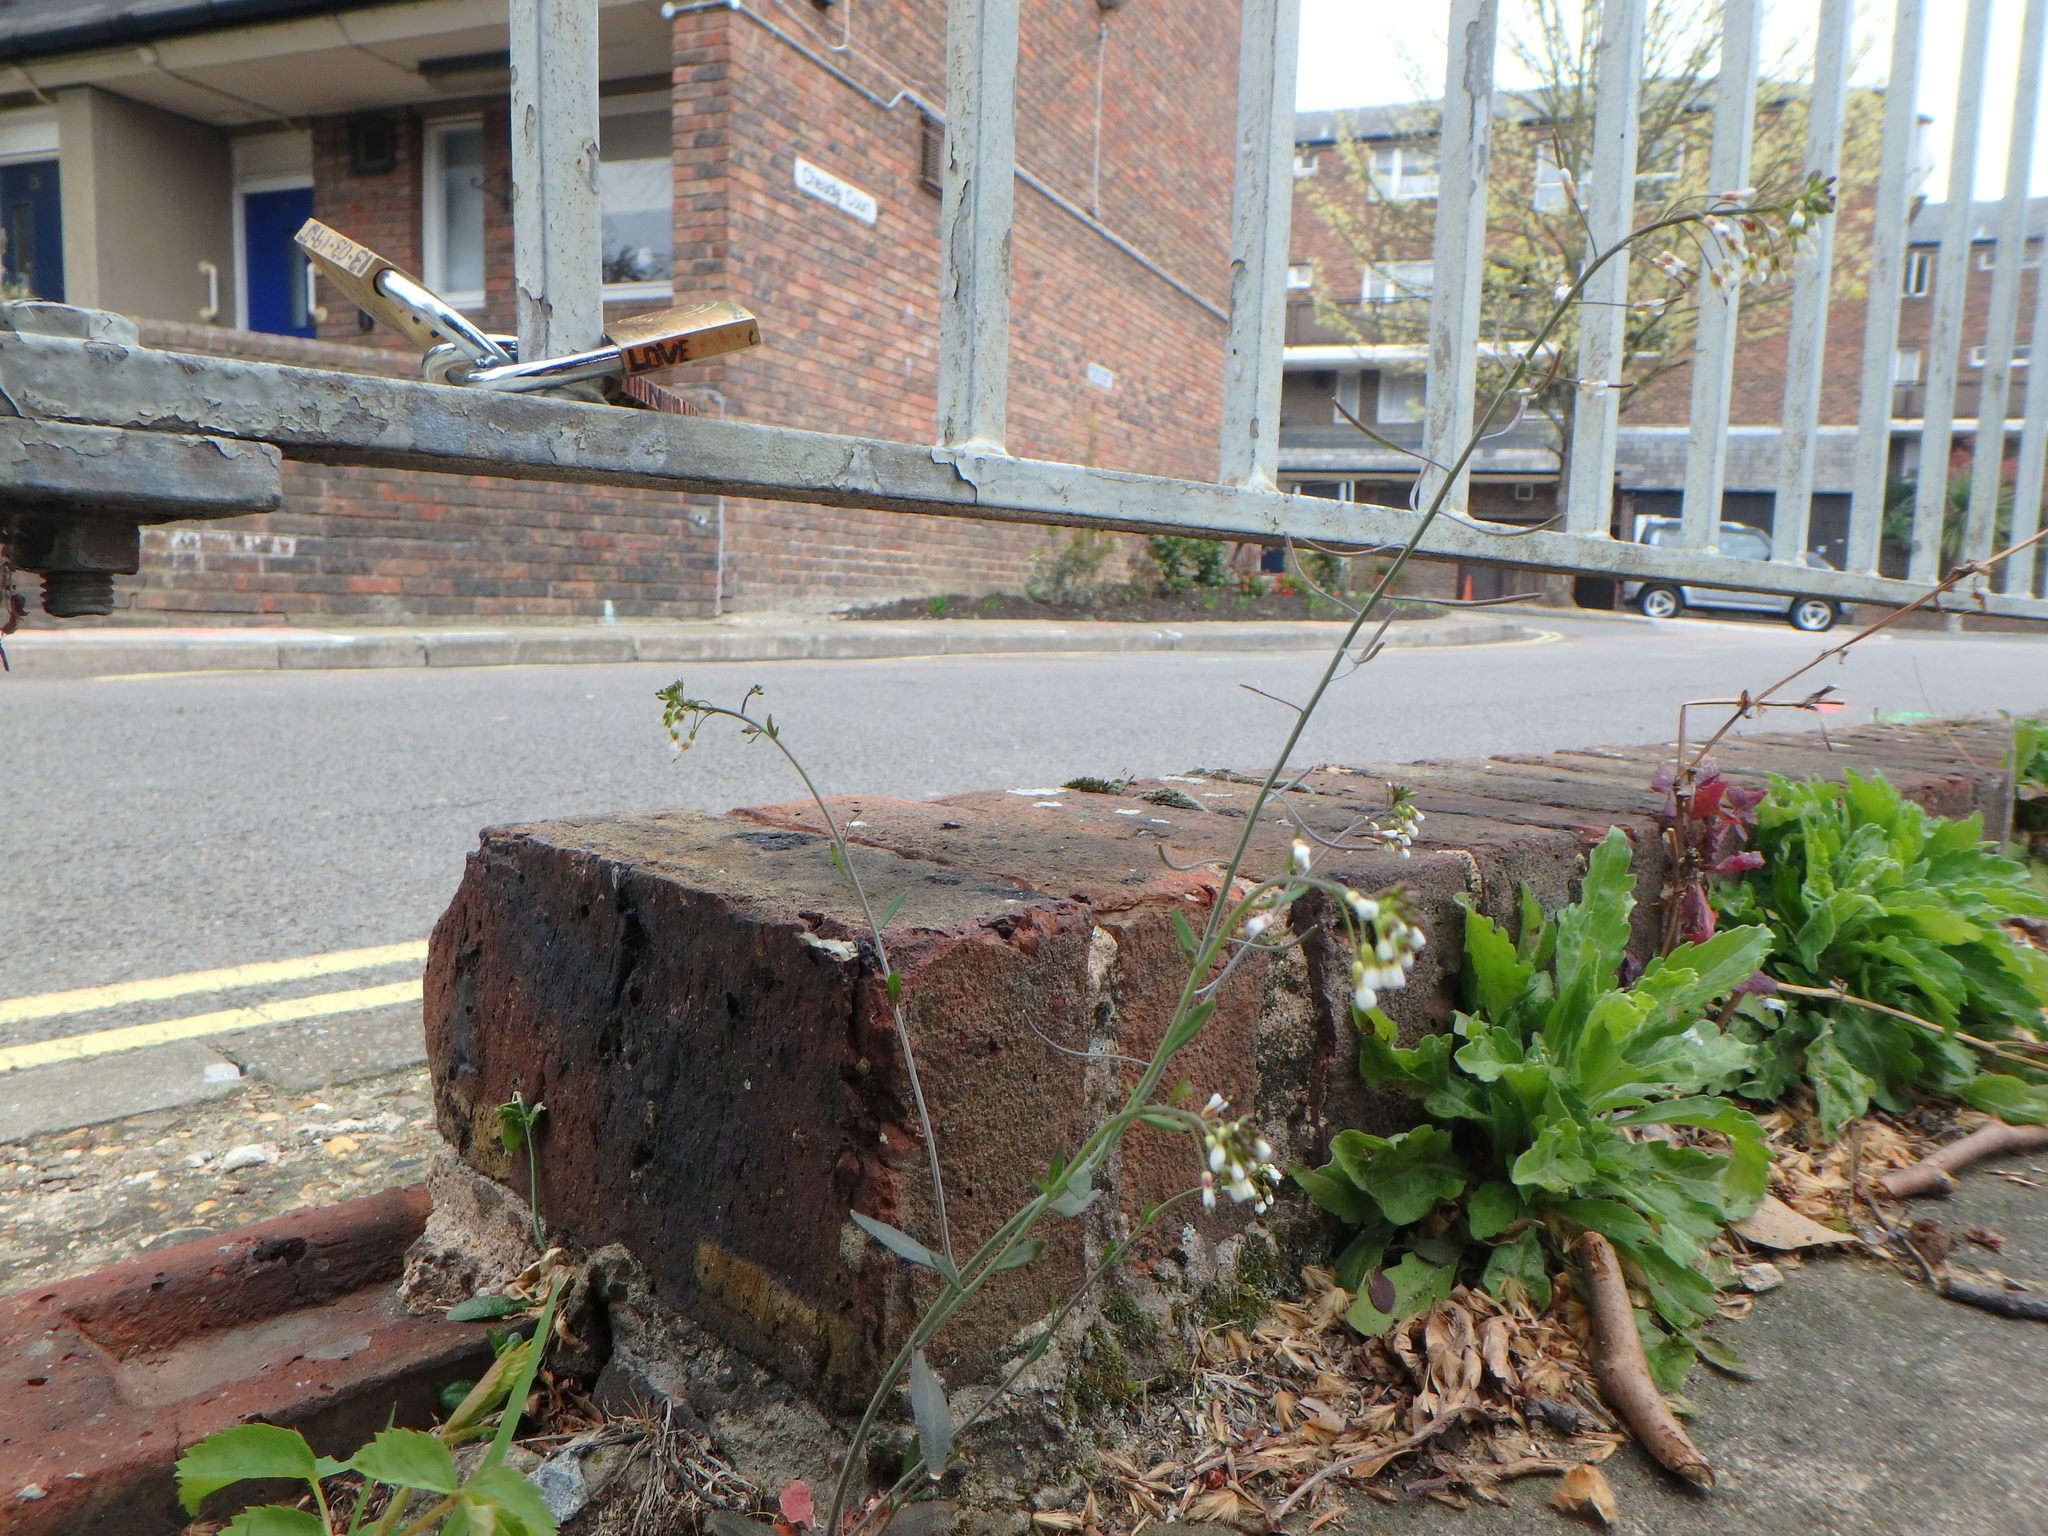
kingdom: Plantae
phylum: Tracheophyta
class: Magnoliopsida
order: Brassicales
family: Brassicaceae
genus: Arabidopsis
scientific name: Arabidopsis thaliana
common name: Thale cress
